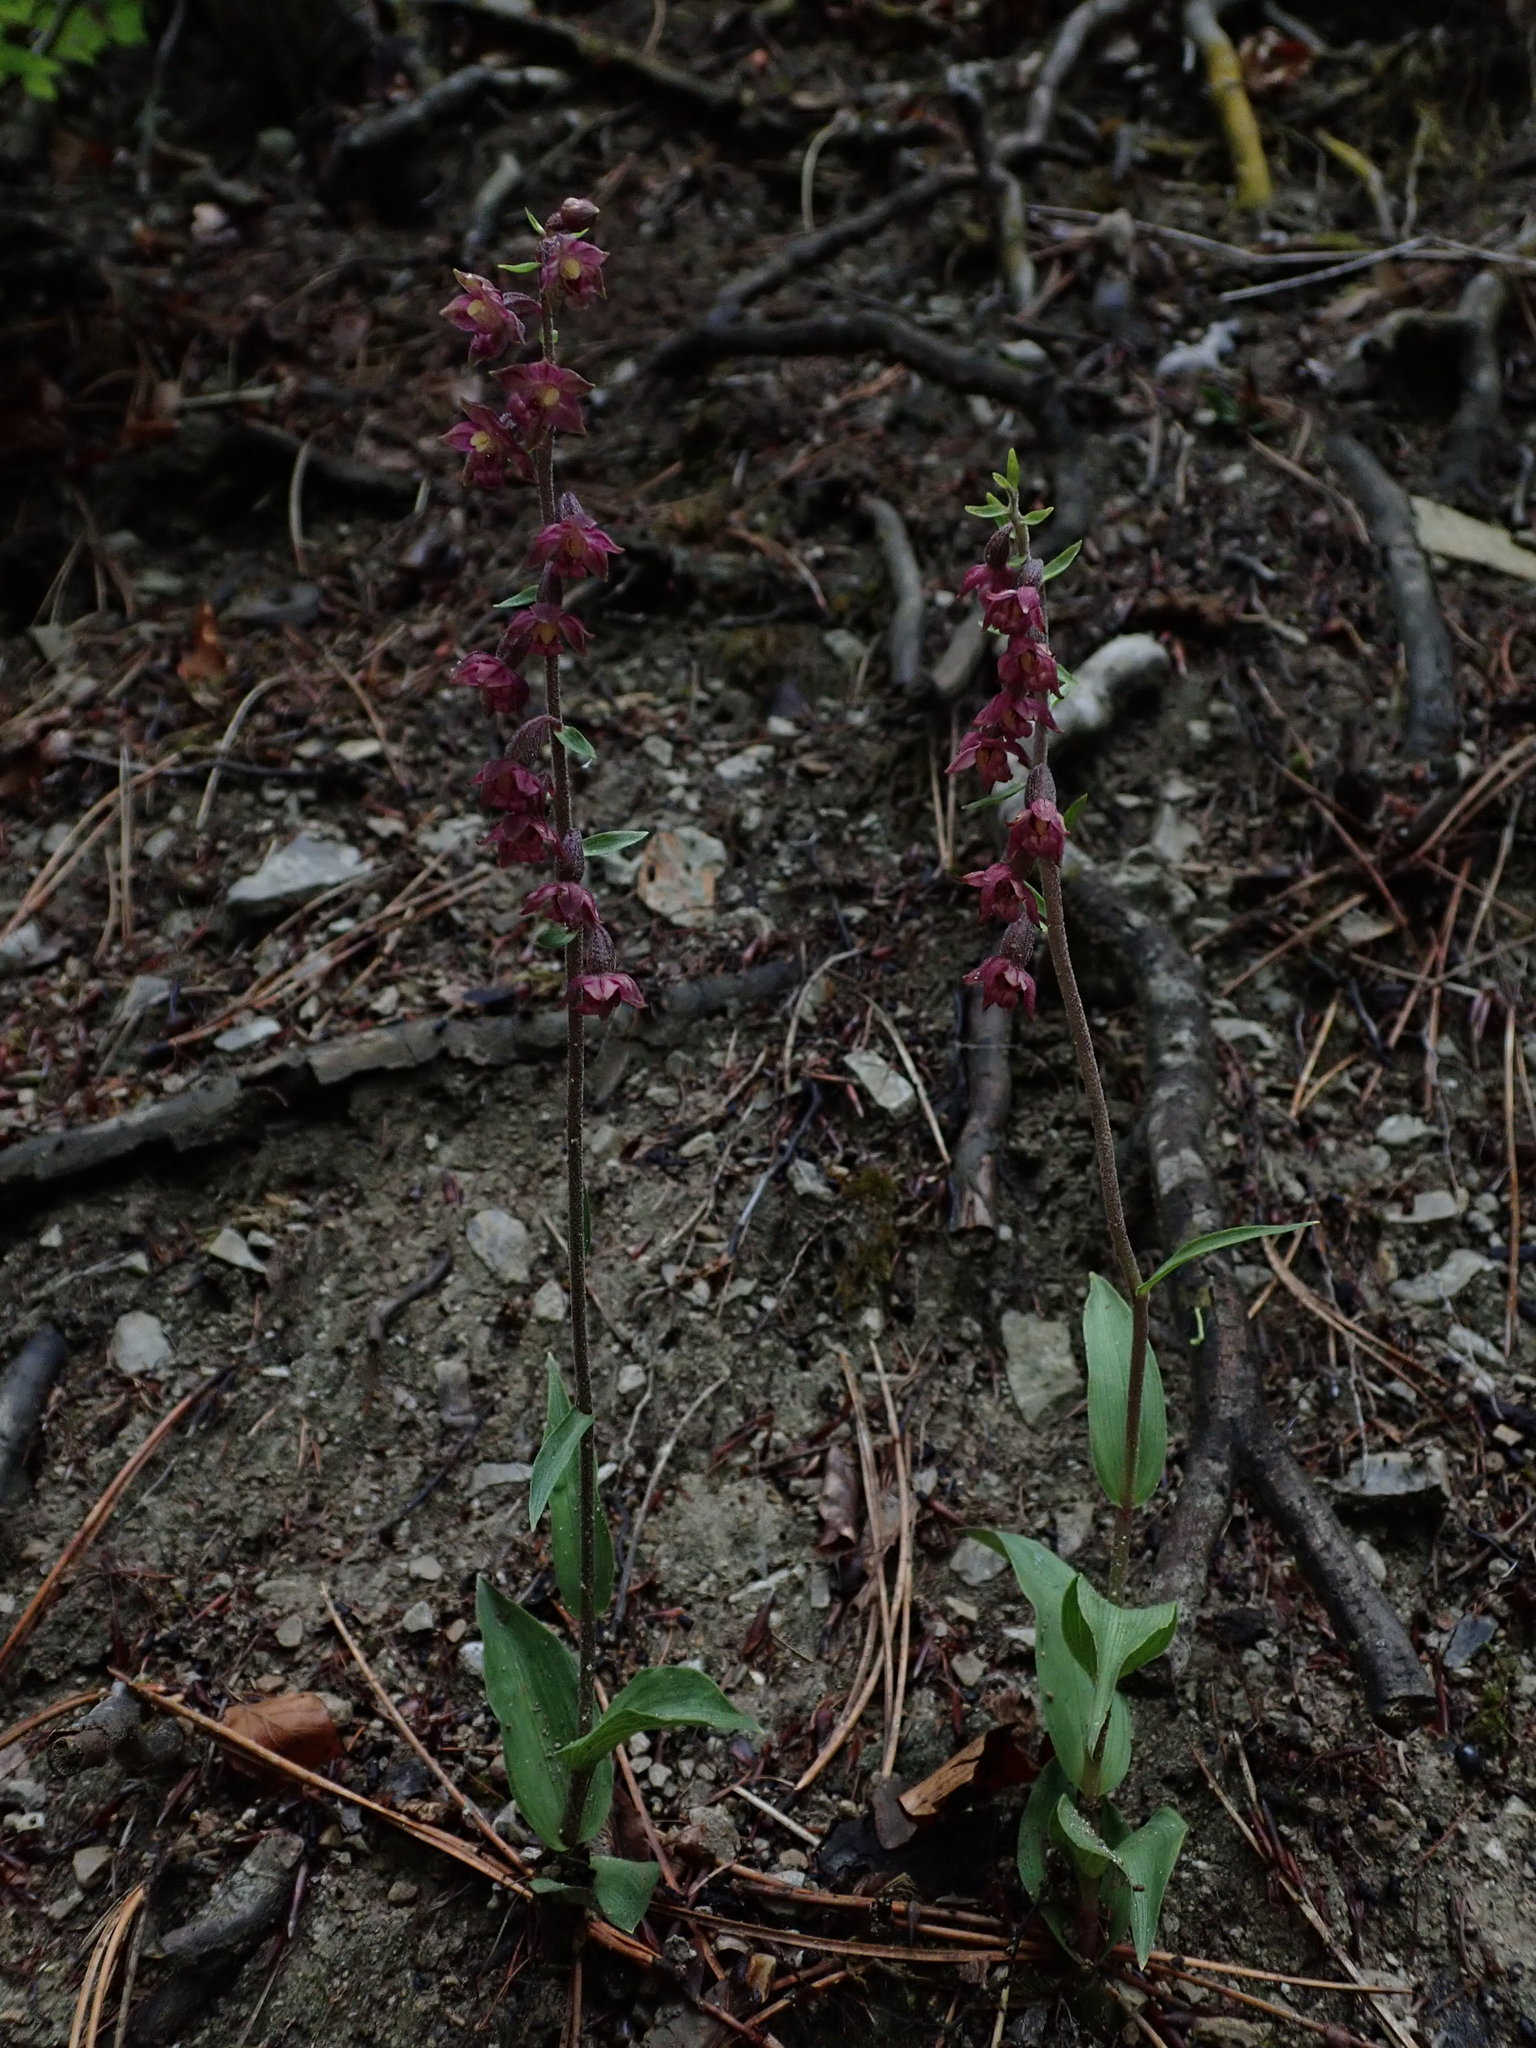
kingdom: Plantae
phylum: Tracheophyta
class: Liliopsida
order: Asparagales
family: Orchidaceae
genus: Epipactis
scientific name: Epipactis atrorubens
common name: Dark-red helleborine
